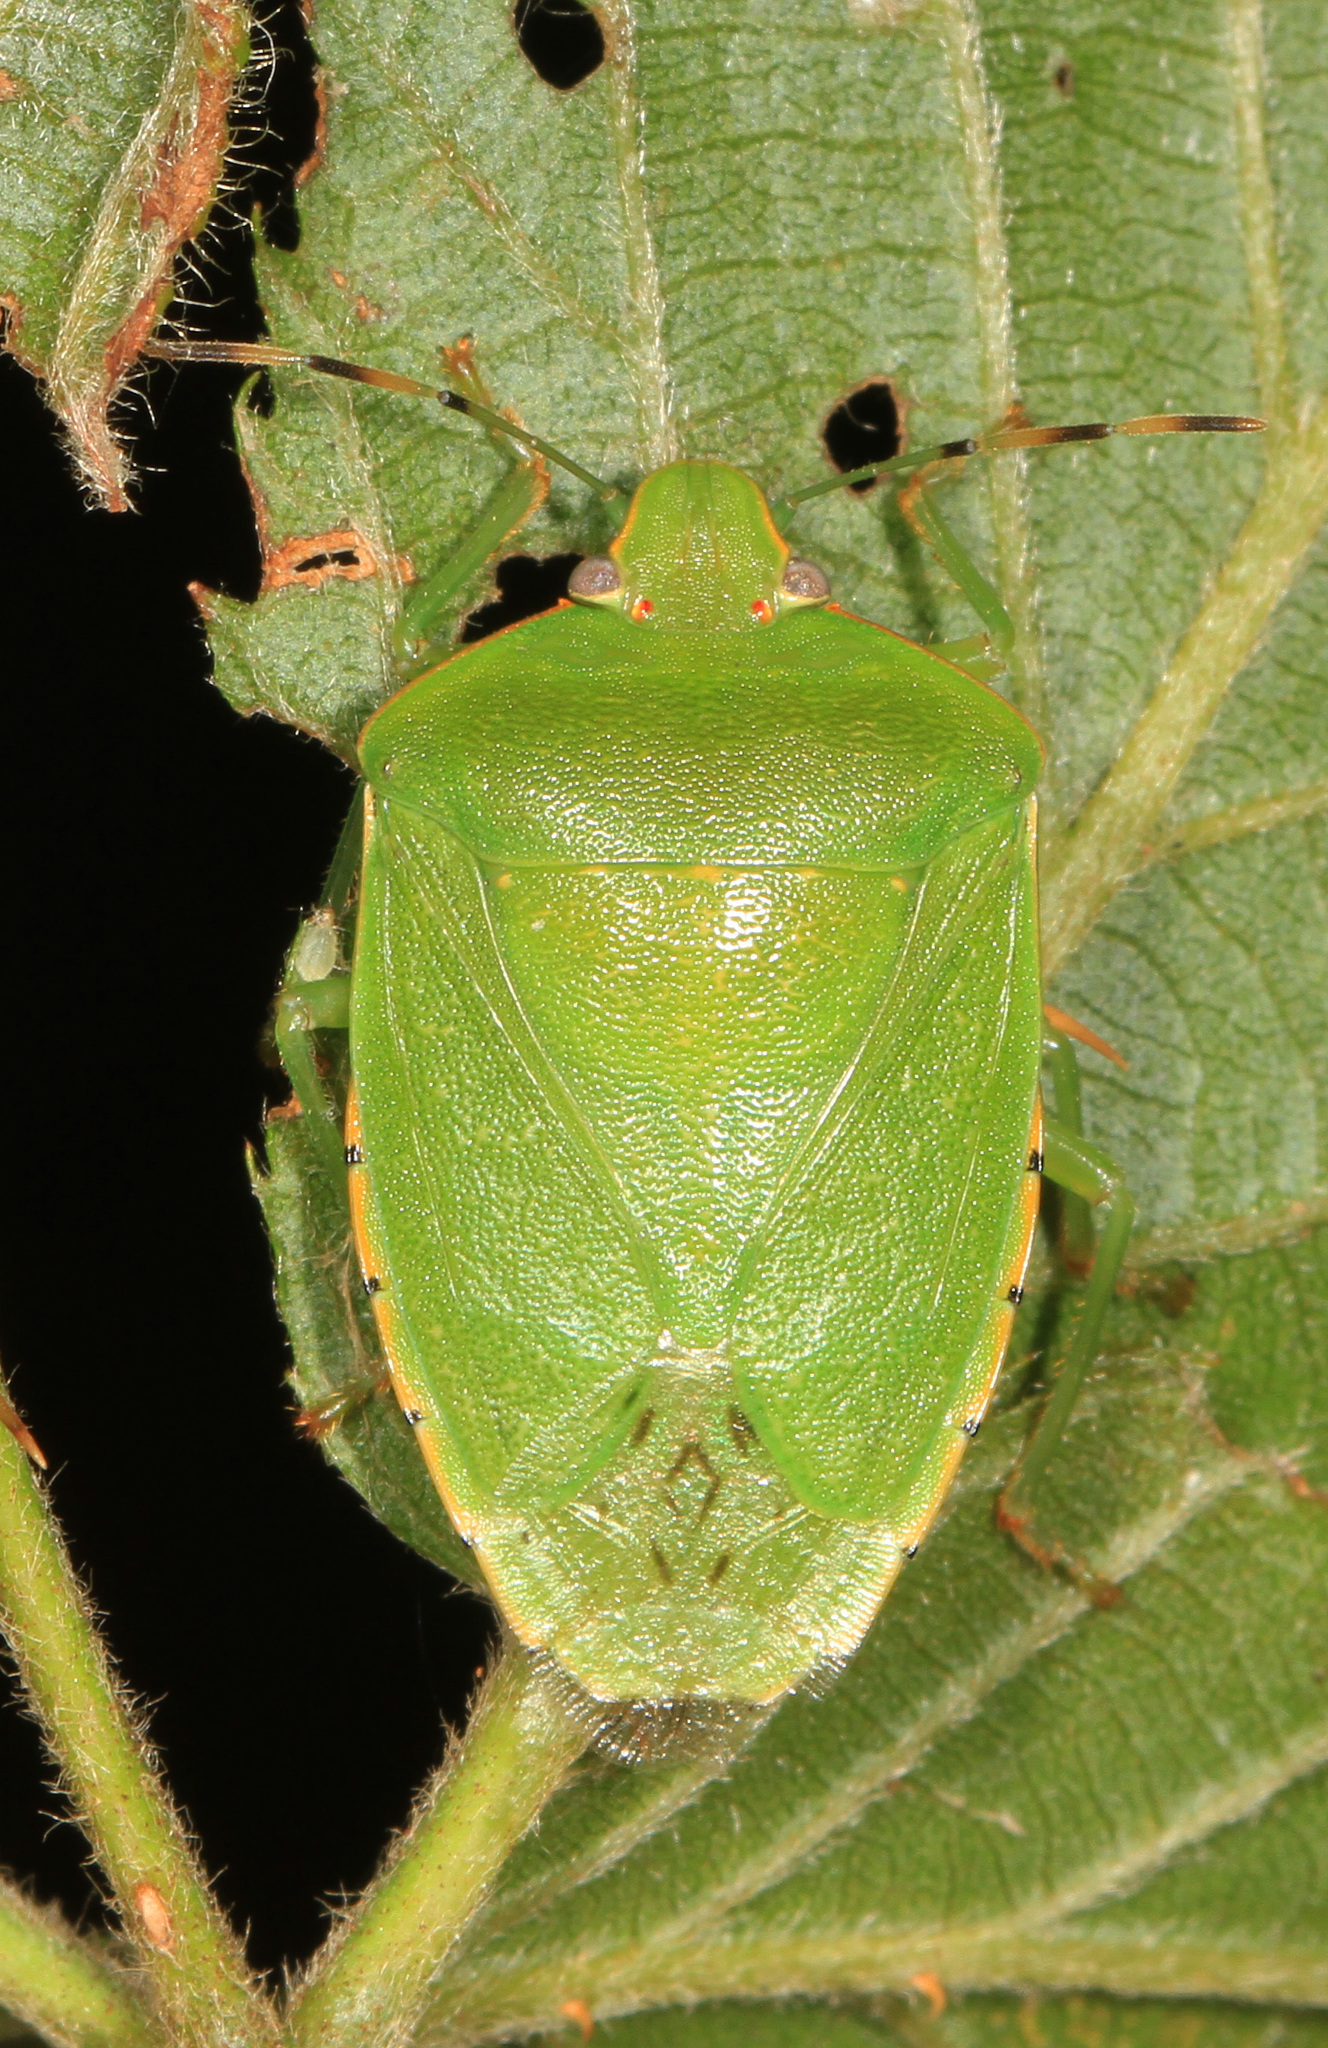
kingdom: Animalia
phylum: Arthropoda
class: Insecta
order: Hemiptera
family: Pentatomidae
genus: Chinavia
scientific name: Chinavia hilaris
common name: Green stink bug
